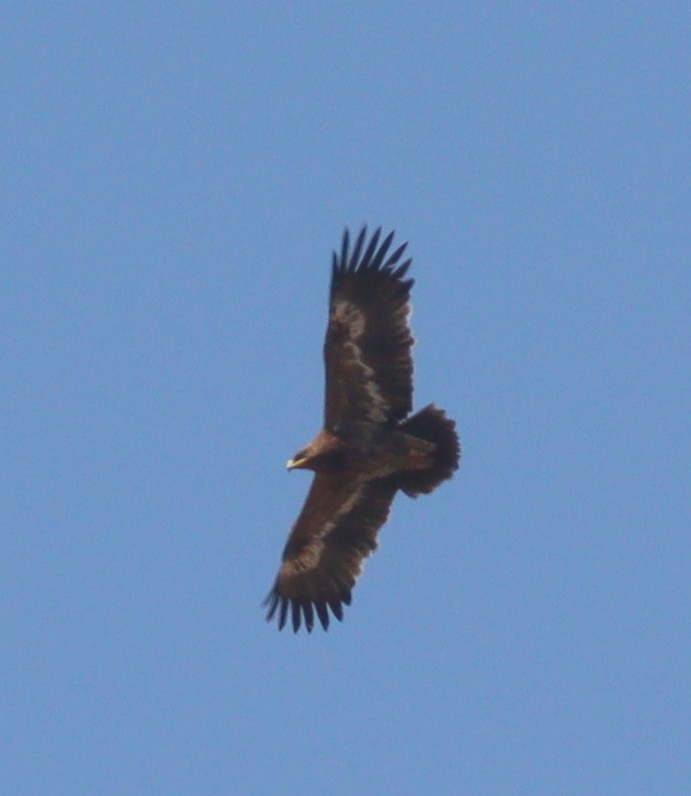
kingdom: Animalia
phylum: Chordata
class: Aves
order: Accipitriformes
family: Accipitridae
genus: Aquila
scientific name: Aquila nipalensis
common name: Steppe eagle
